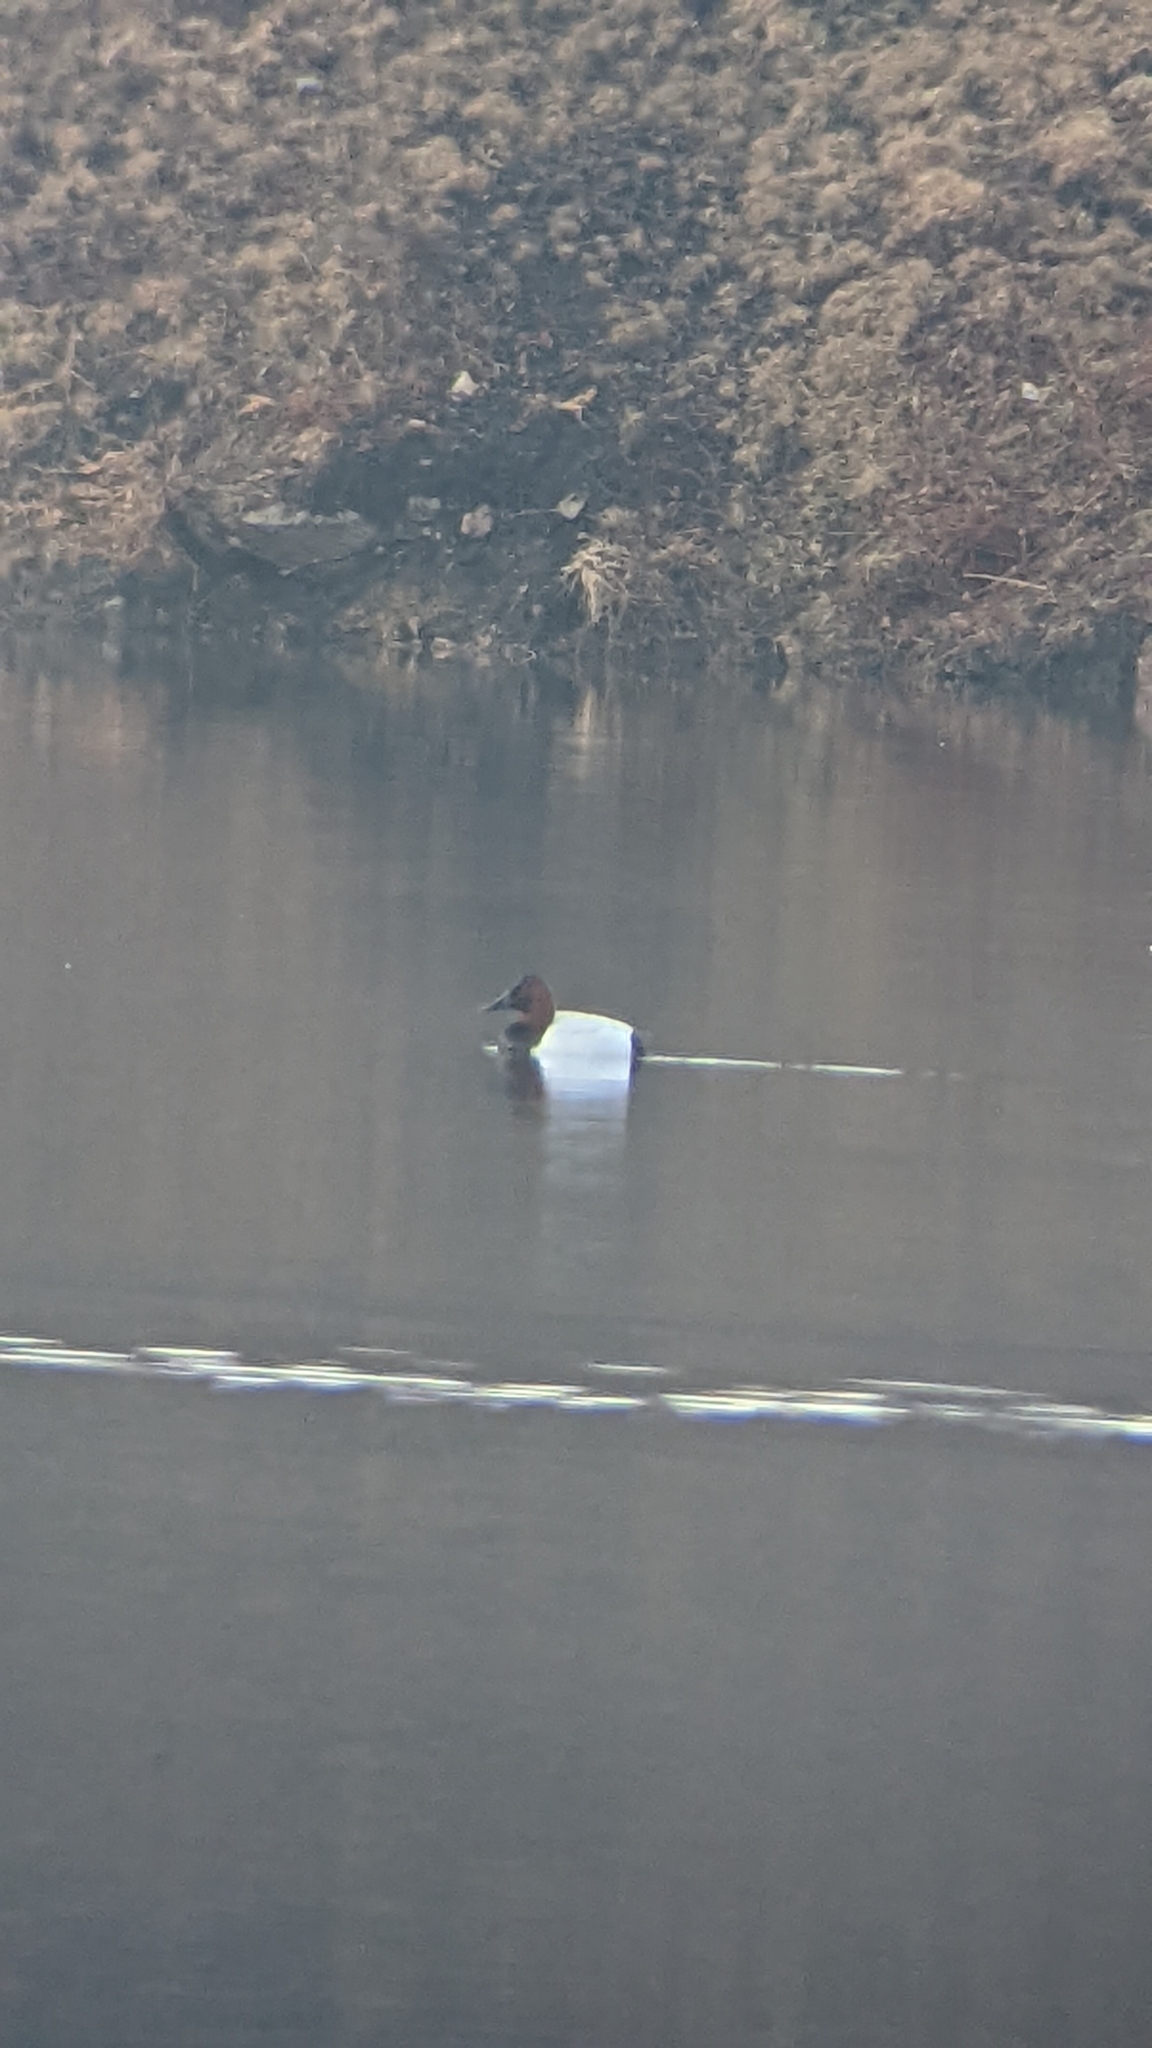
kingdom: Animalia
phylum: Chordata
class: Aves
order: Anseriformes
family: Anatidae
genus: Aythya
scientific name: Aythya valisineria
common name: Canvasback
